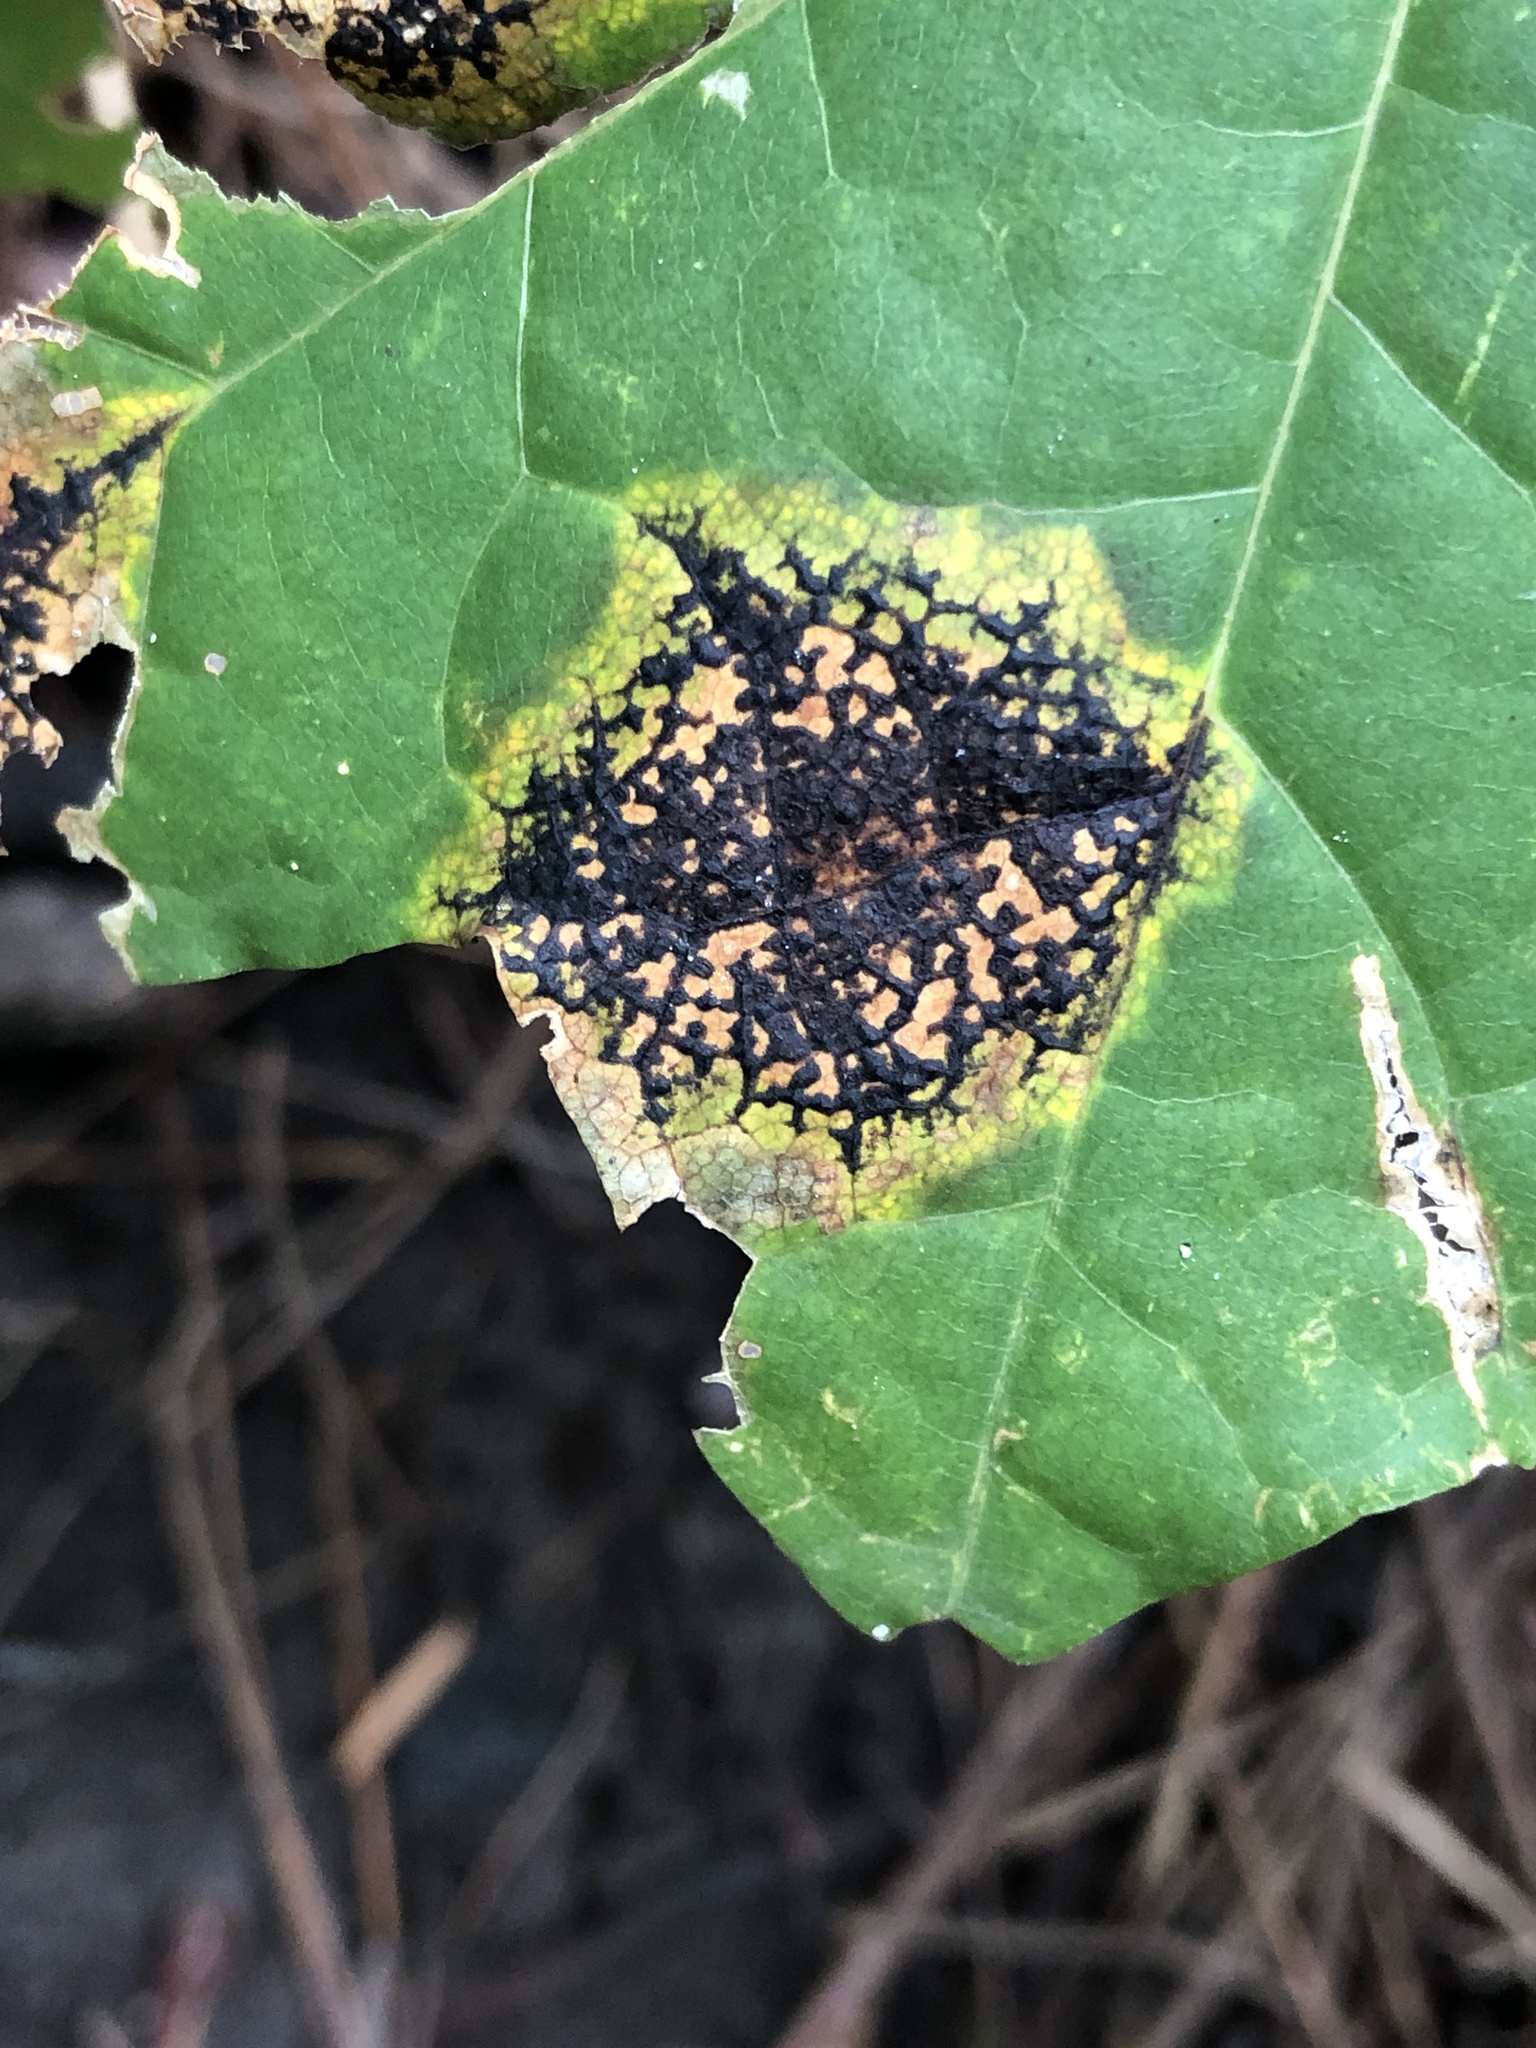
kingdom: Fungi
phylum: Ascomycota
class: Leotiomycetes
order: Rhytismatales
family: Rhytismataceae
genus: Rhytisma
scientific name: Rhytisma acerinum
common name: European tar spot
